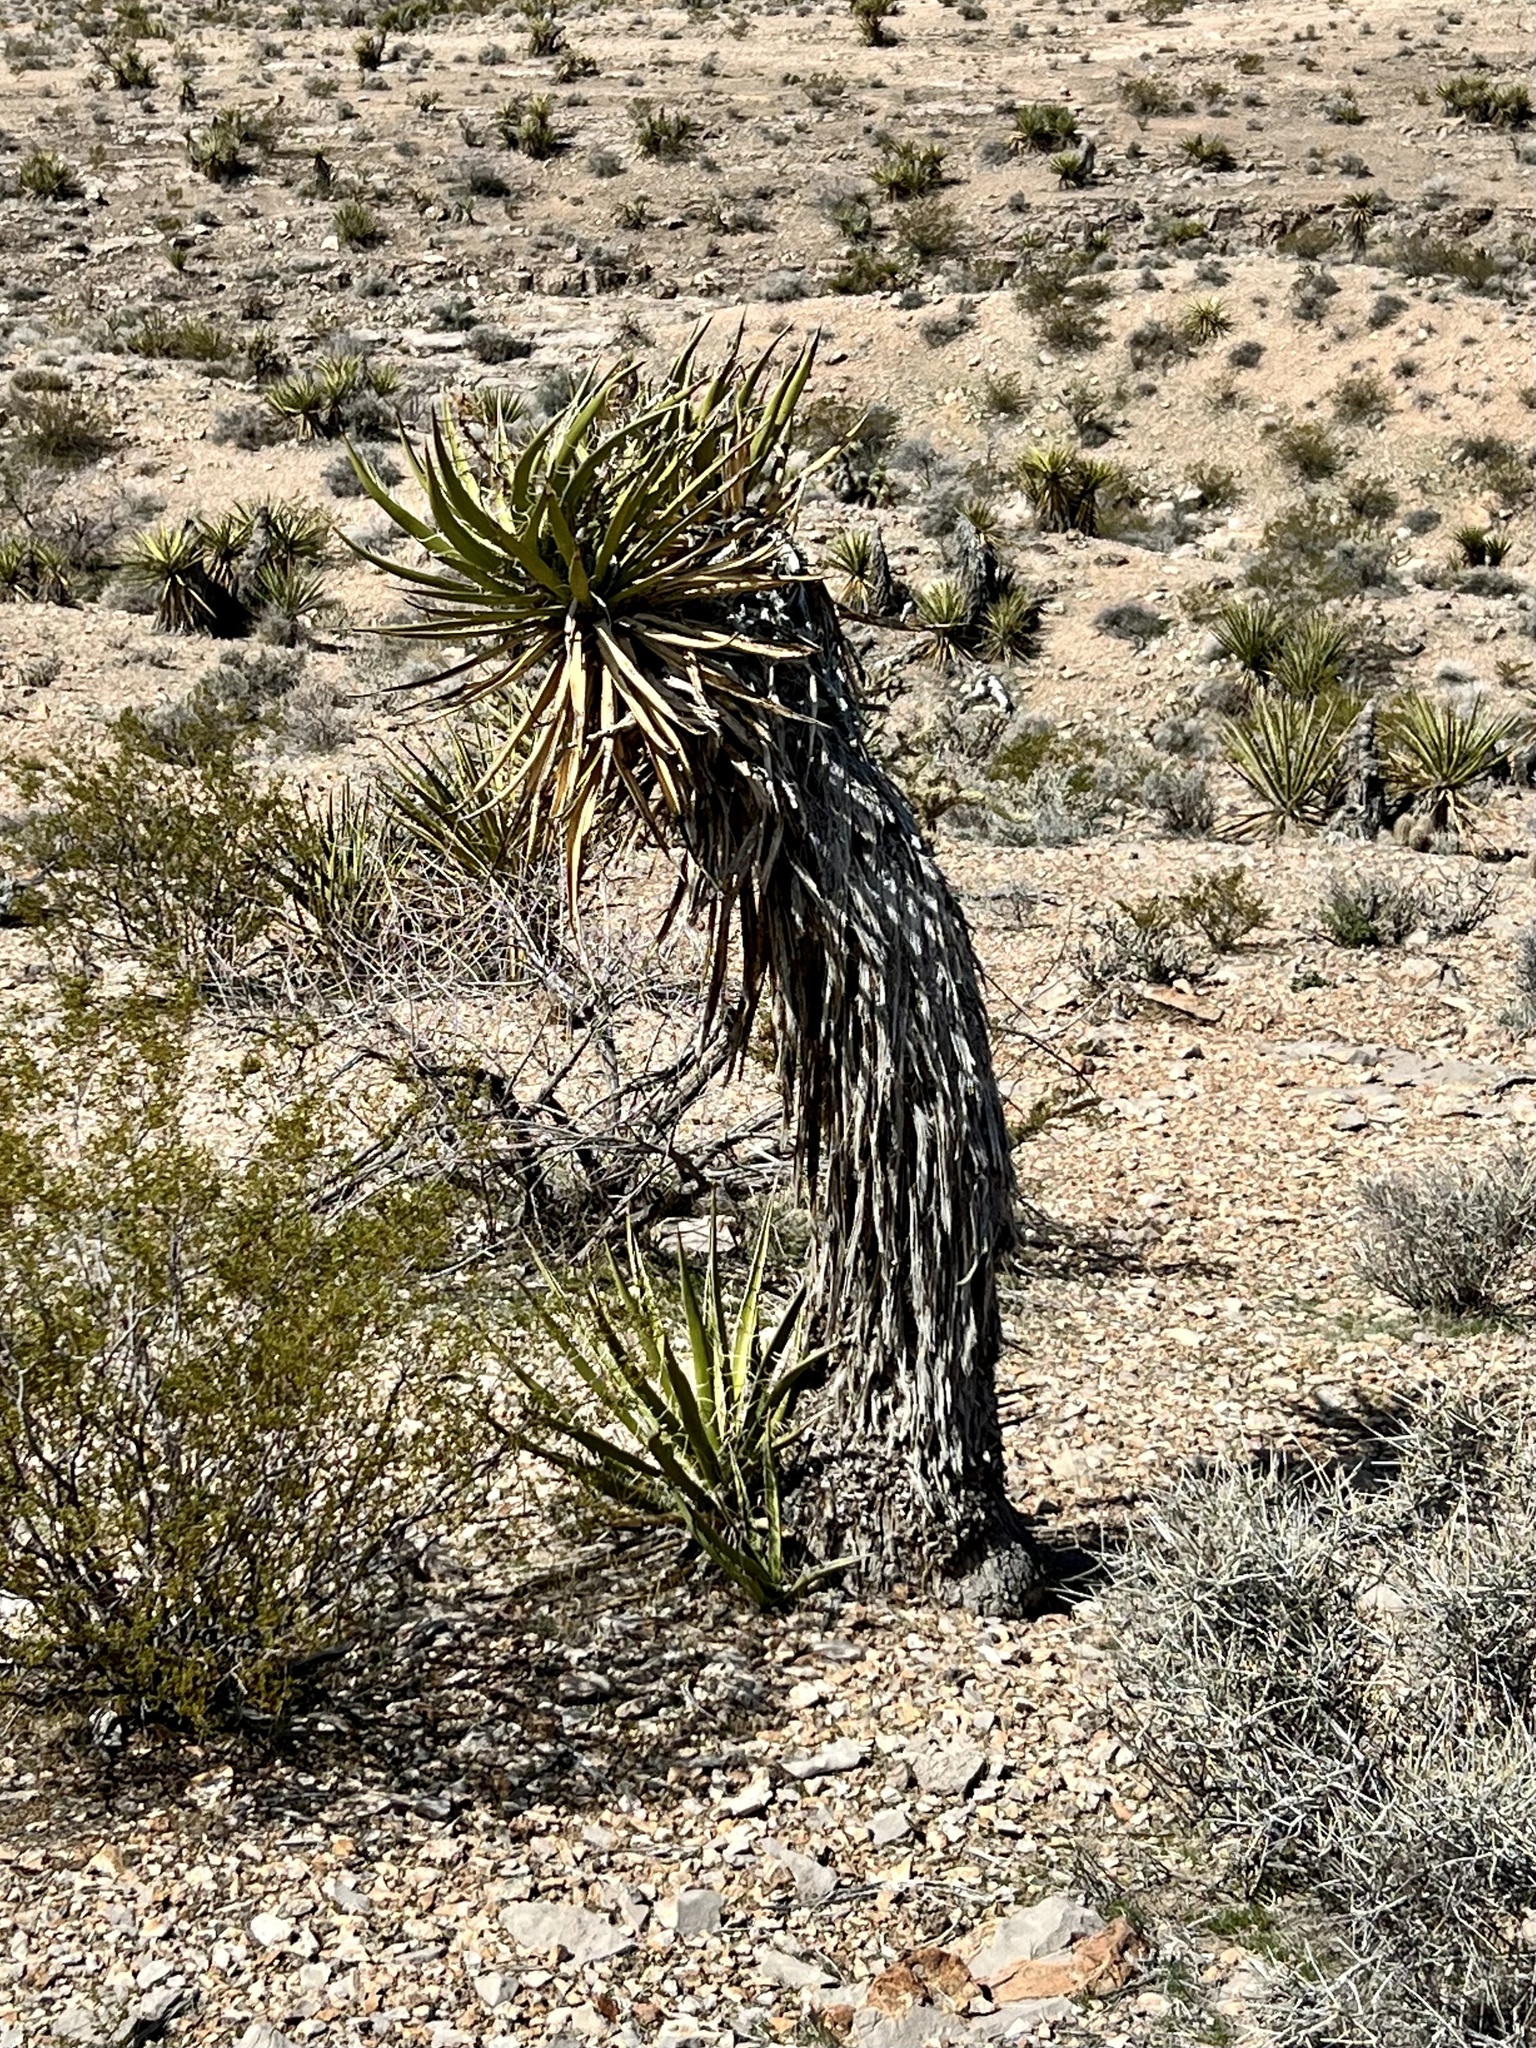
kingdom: Plantae
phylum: Tracheophyta
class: Liliopsida
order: Asparagales
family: Asparagaceae
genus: Yucca
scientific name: Yucca schidigera
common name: Mojave yucca
